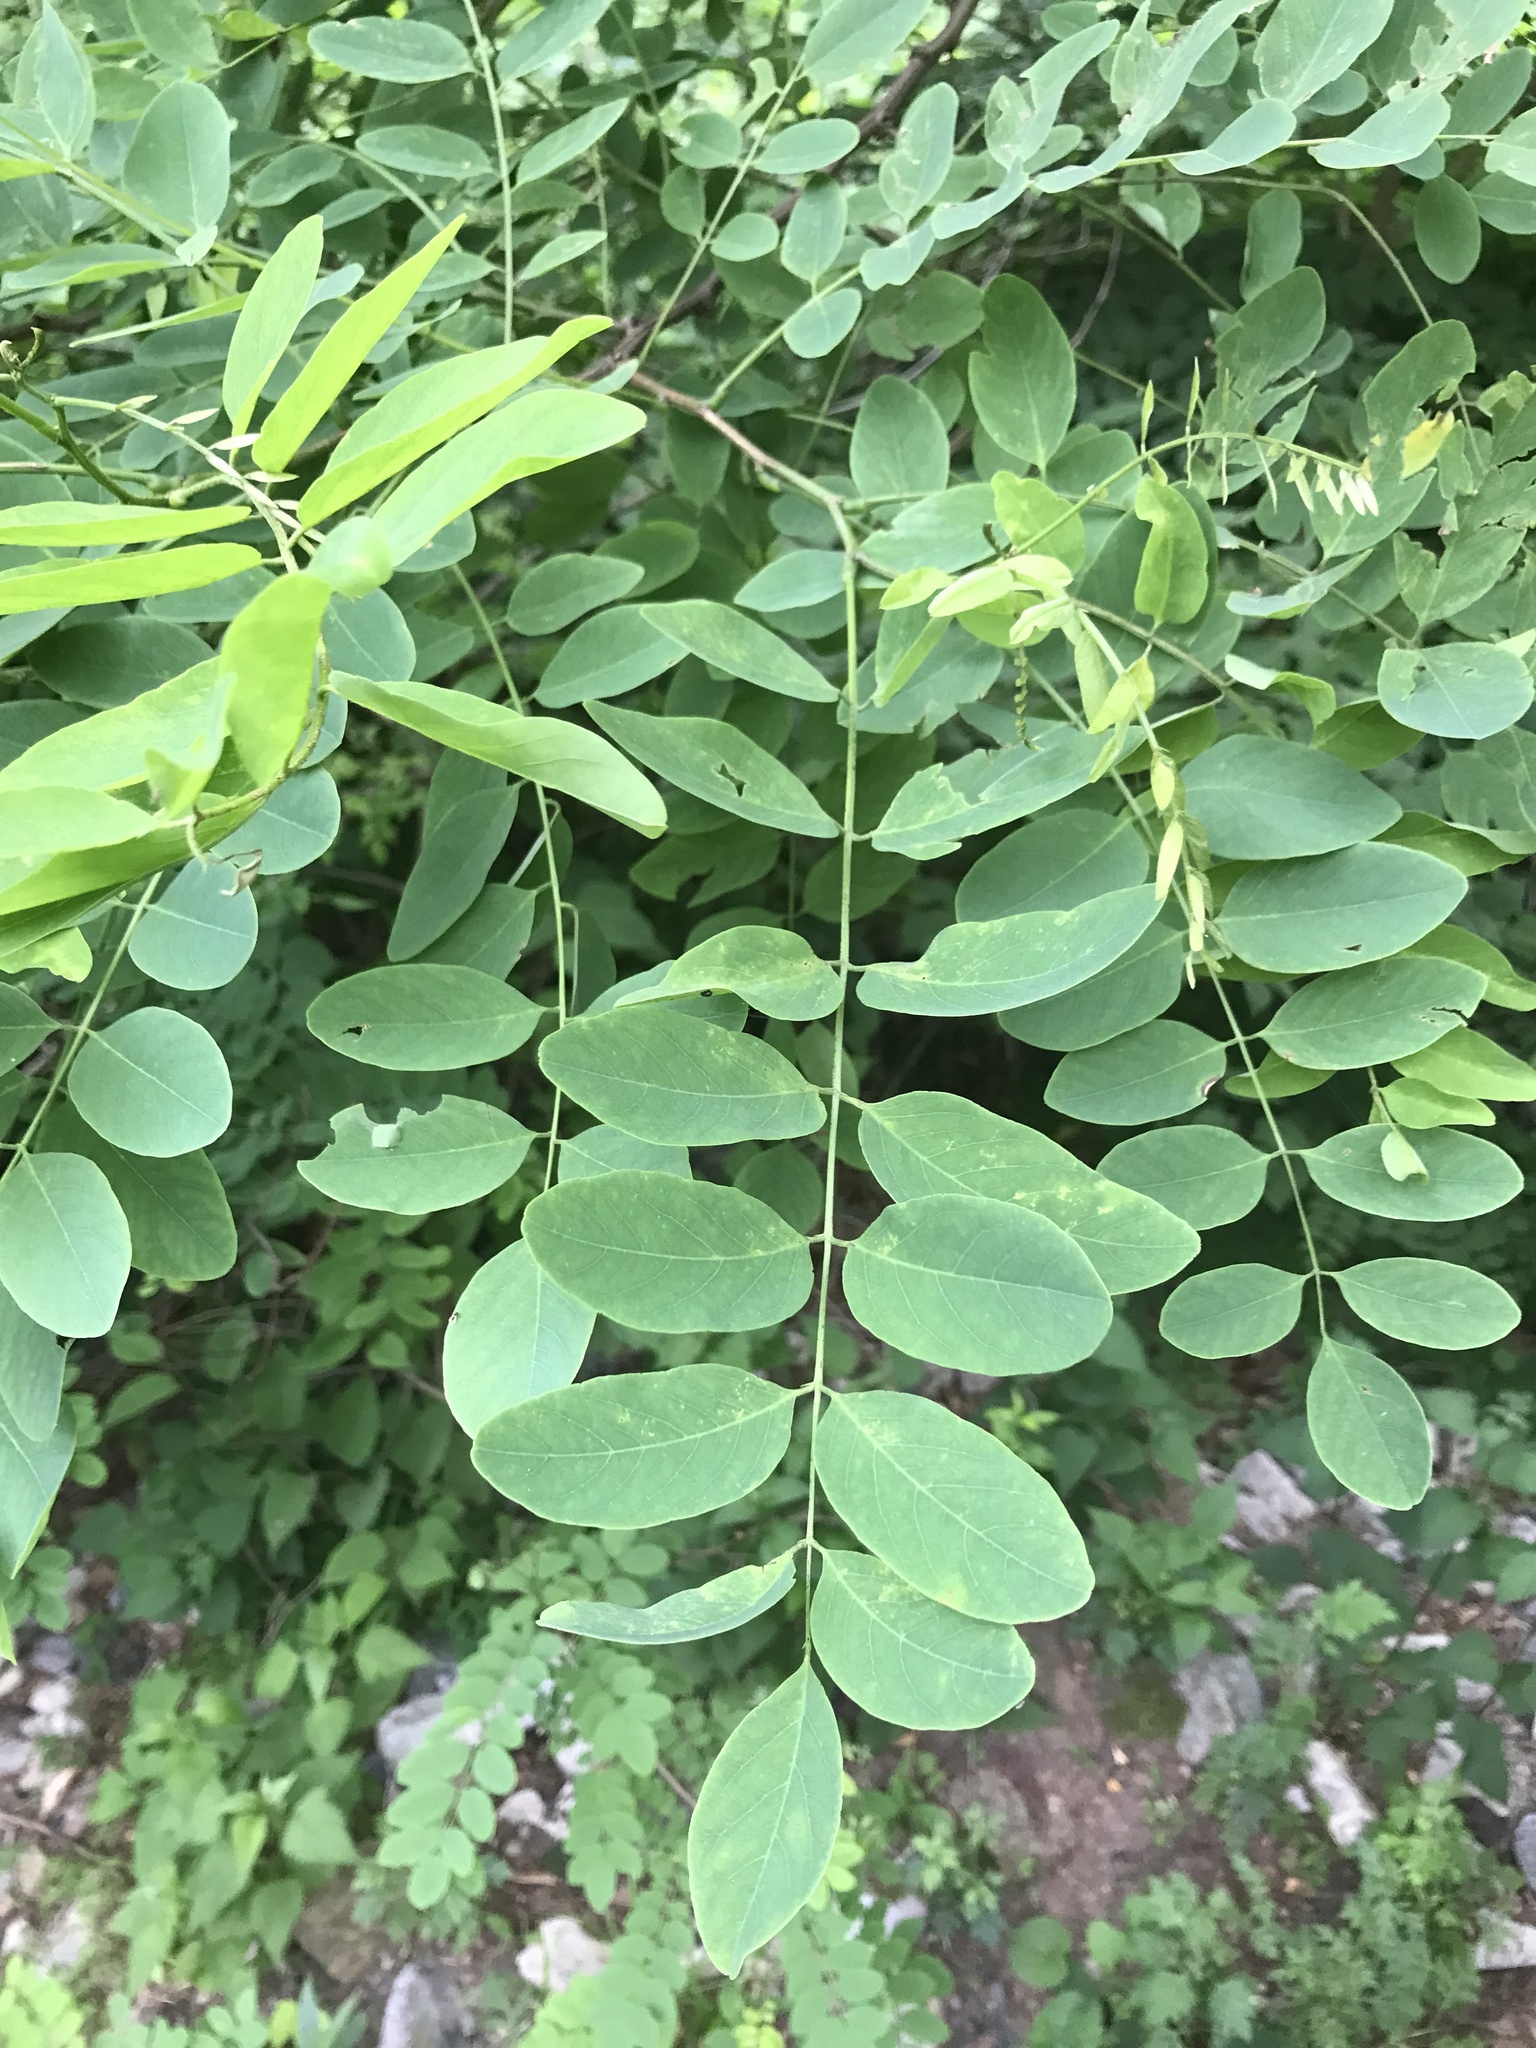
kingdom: Plantae
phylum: Tracheophyta
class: Magnoliopsida
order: Fabales
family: Fabaceae
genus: Robinia
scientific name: Robinia pseudoacacia
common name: Black locust
